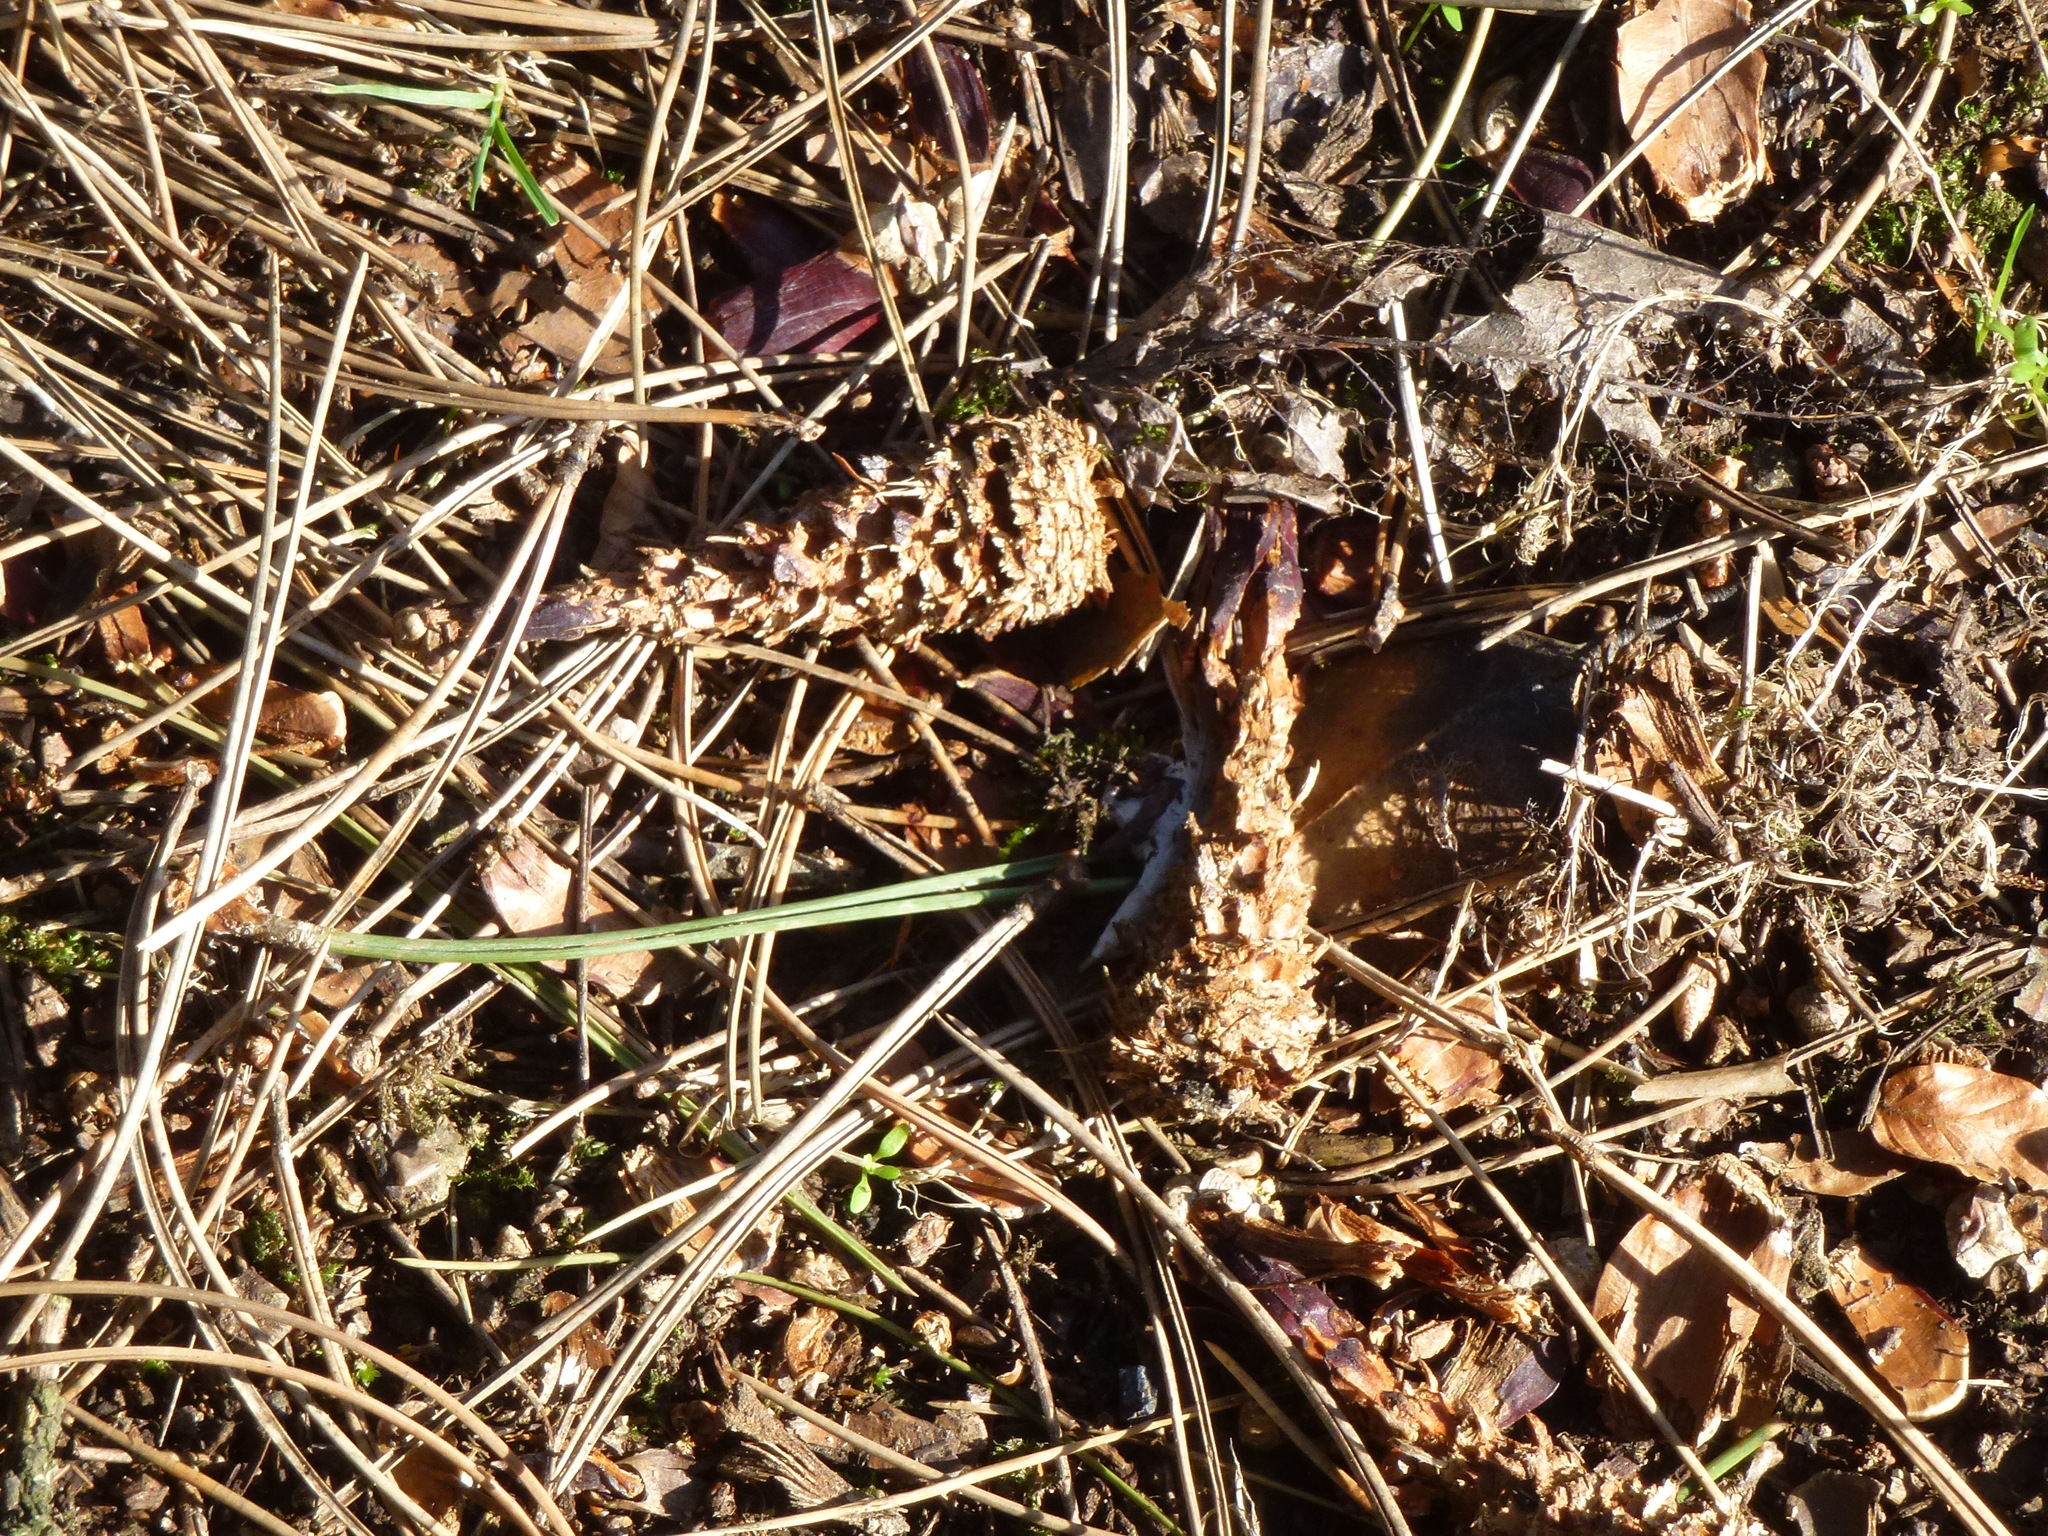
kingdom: Animalia
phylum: Chordata
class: Mammalia
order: Rodentia
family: Sciuridae
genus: Sciurus
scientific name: Sciurus carolinensis
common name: Eastern gray squirrel
